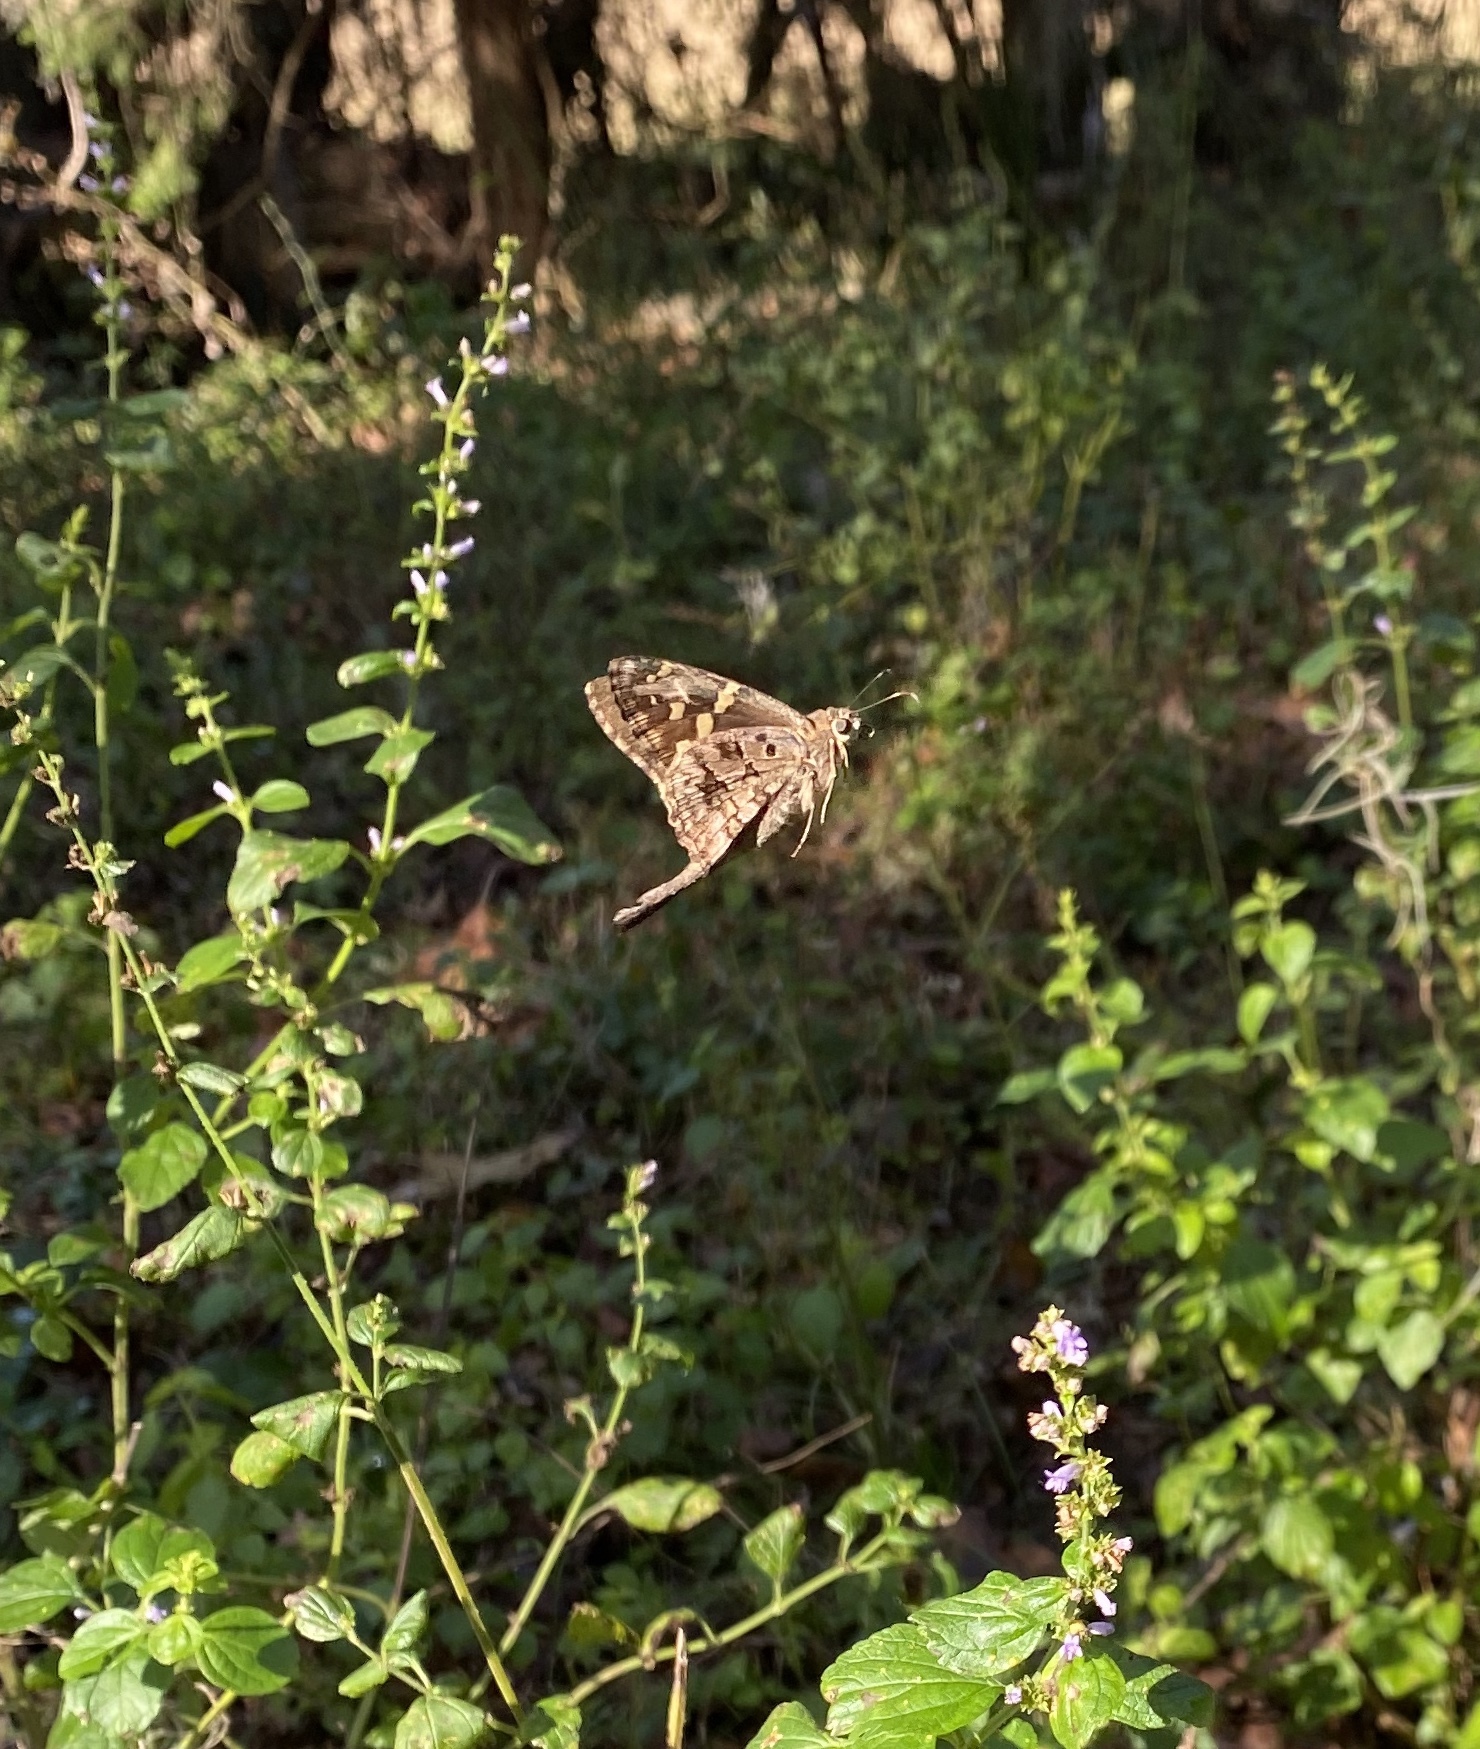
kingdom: Animalia
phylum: Arthropoda
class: Insecta
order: Lepidoptera
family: Hesperiidae
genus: Thorybes
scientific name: Thorybes
